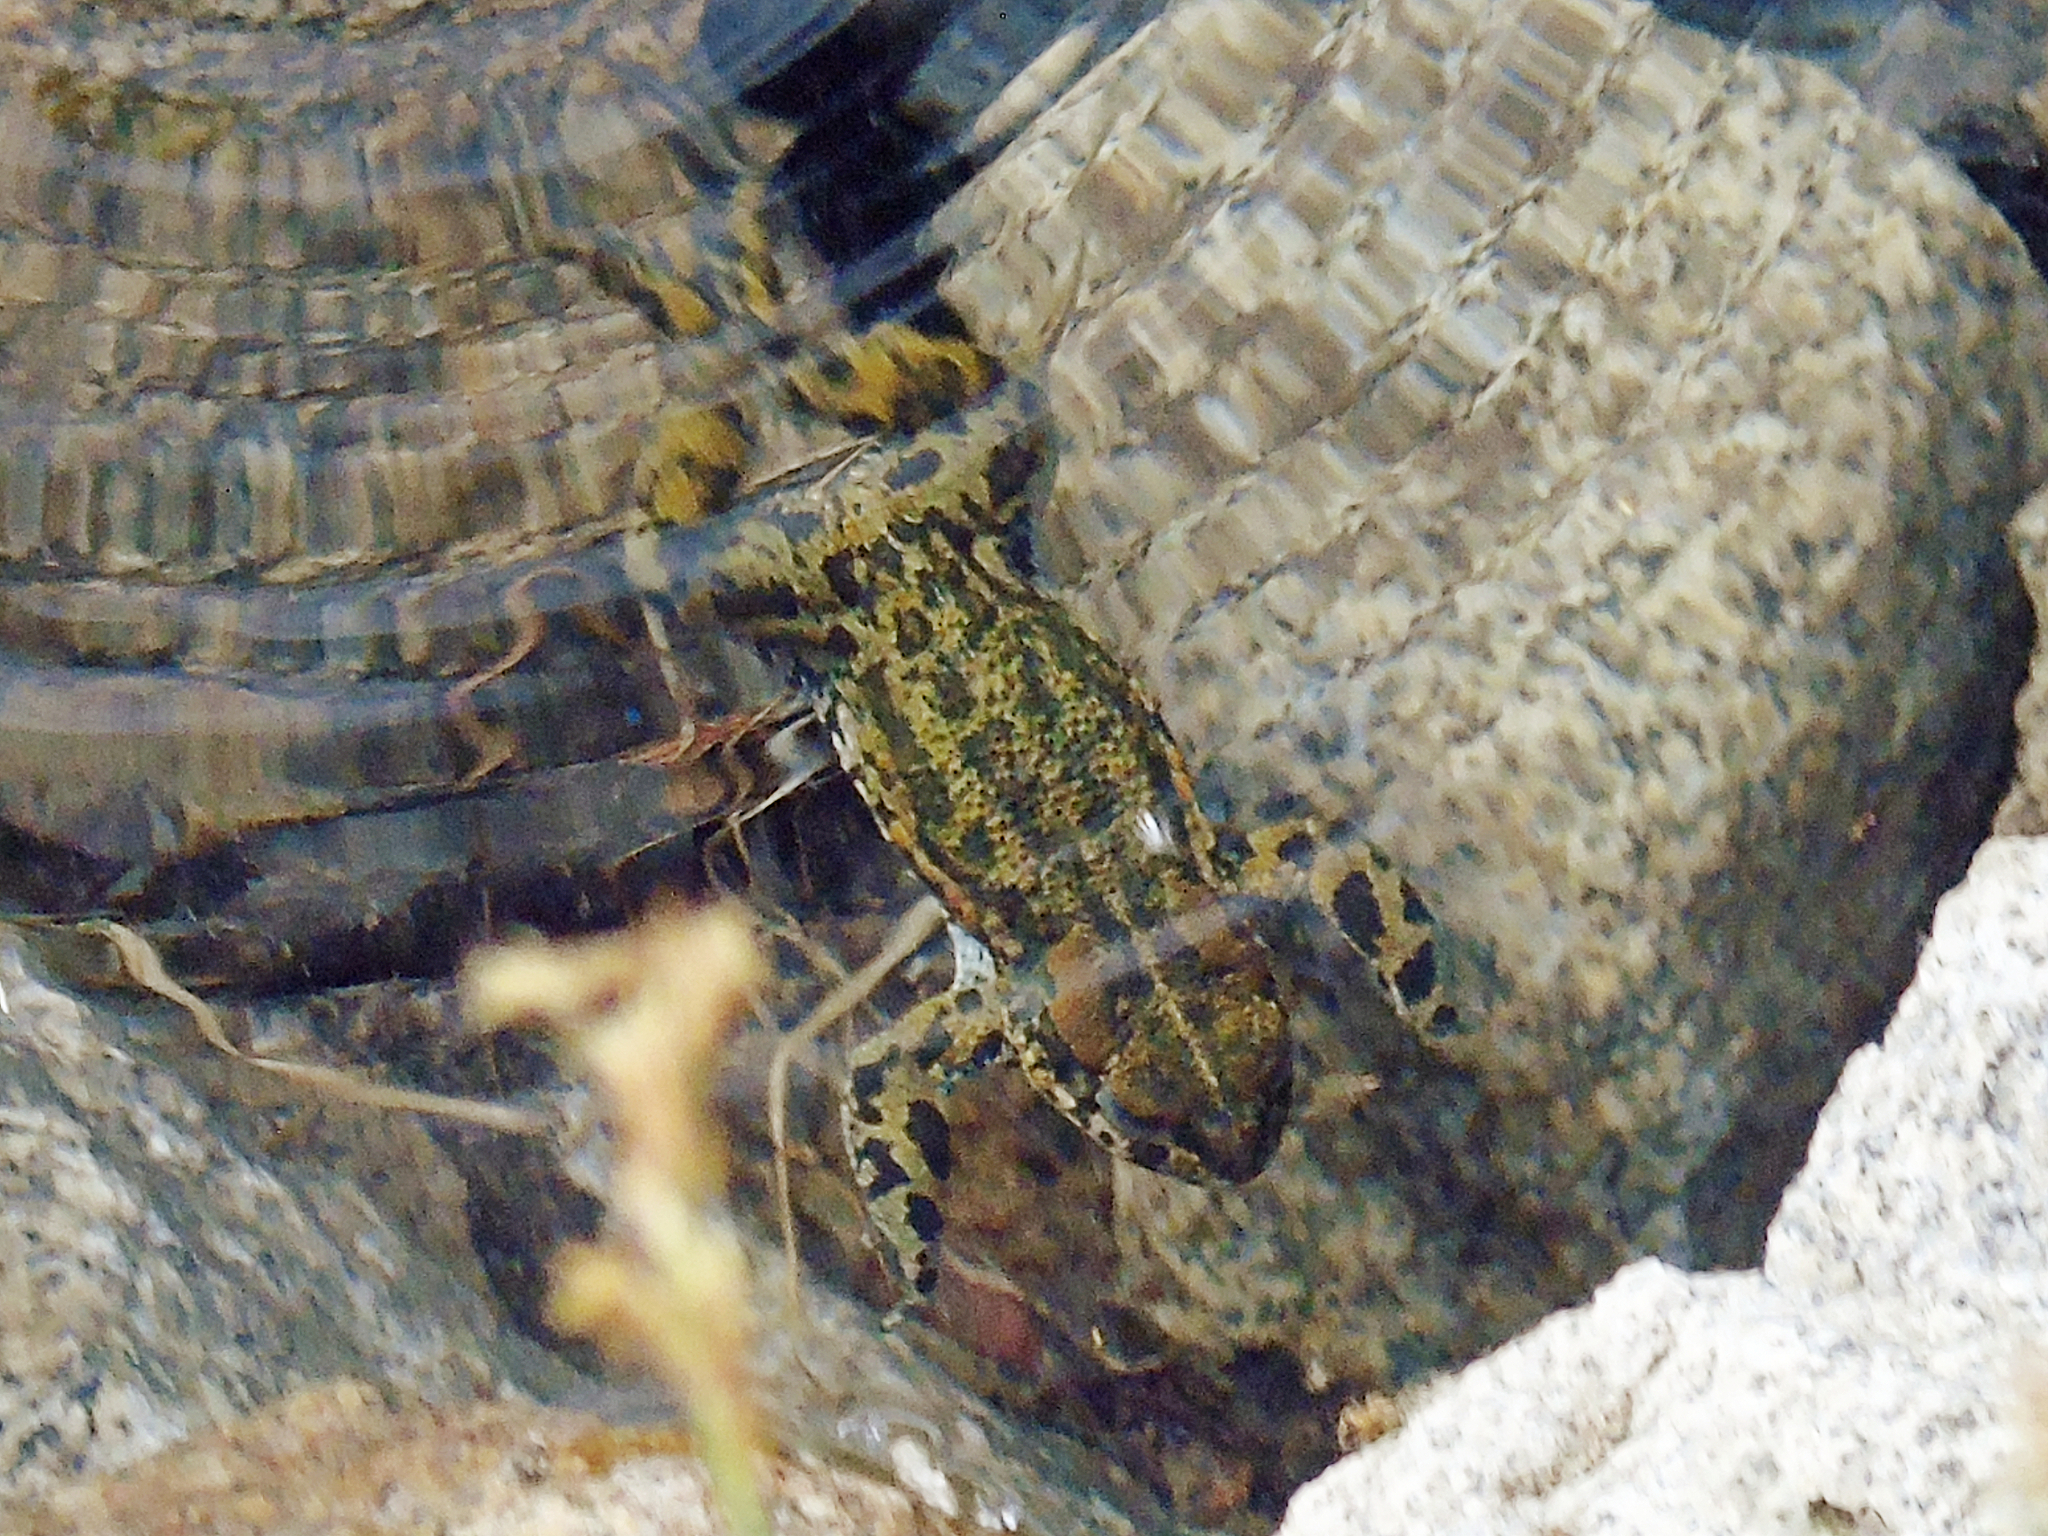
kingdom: Animalia
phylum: Chordata
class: Amphibia
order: Anura
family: Bufonidae
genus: Bufotes
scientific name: Bufotes latastii
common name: Ladakh toad
